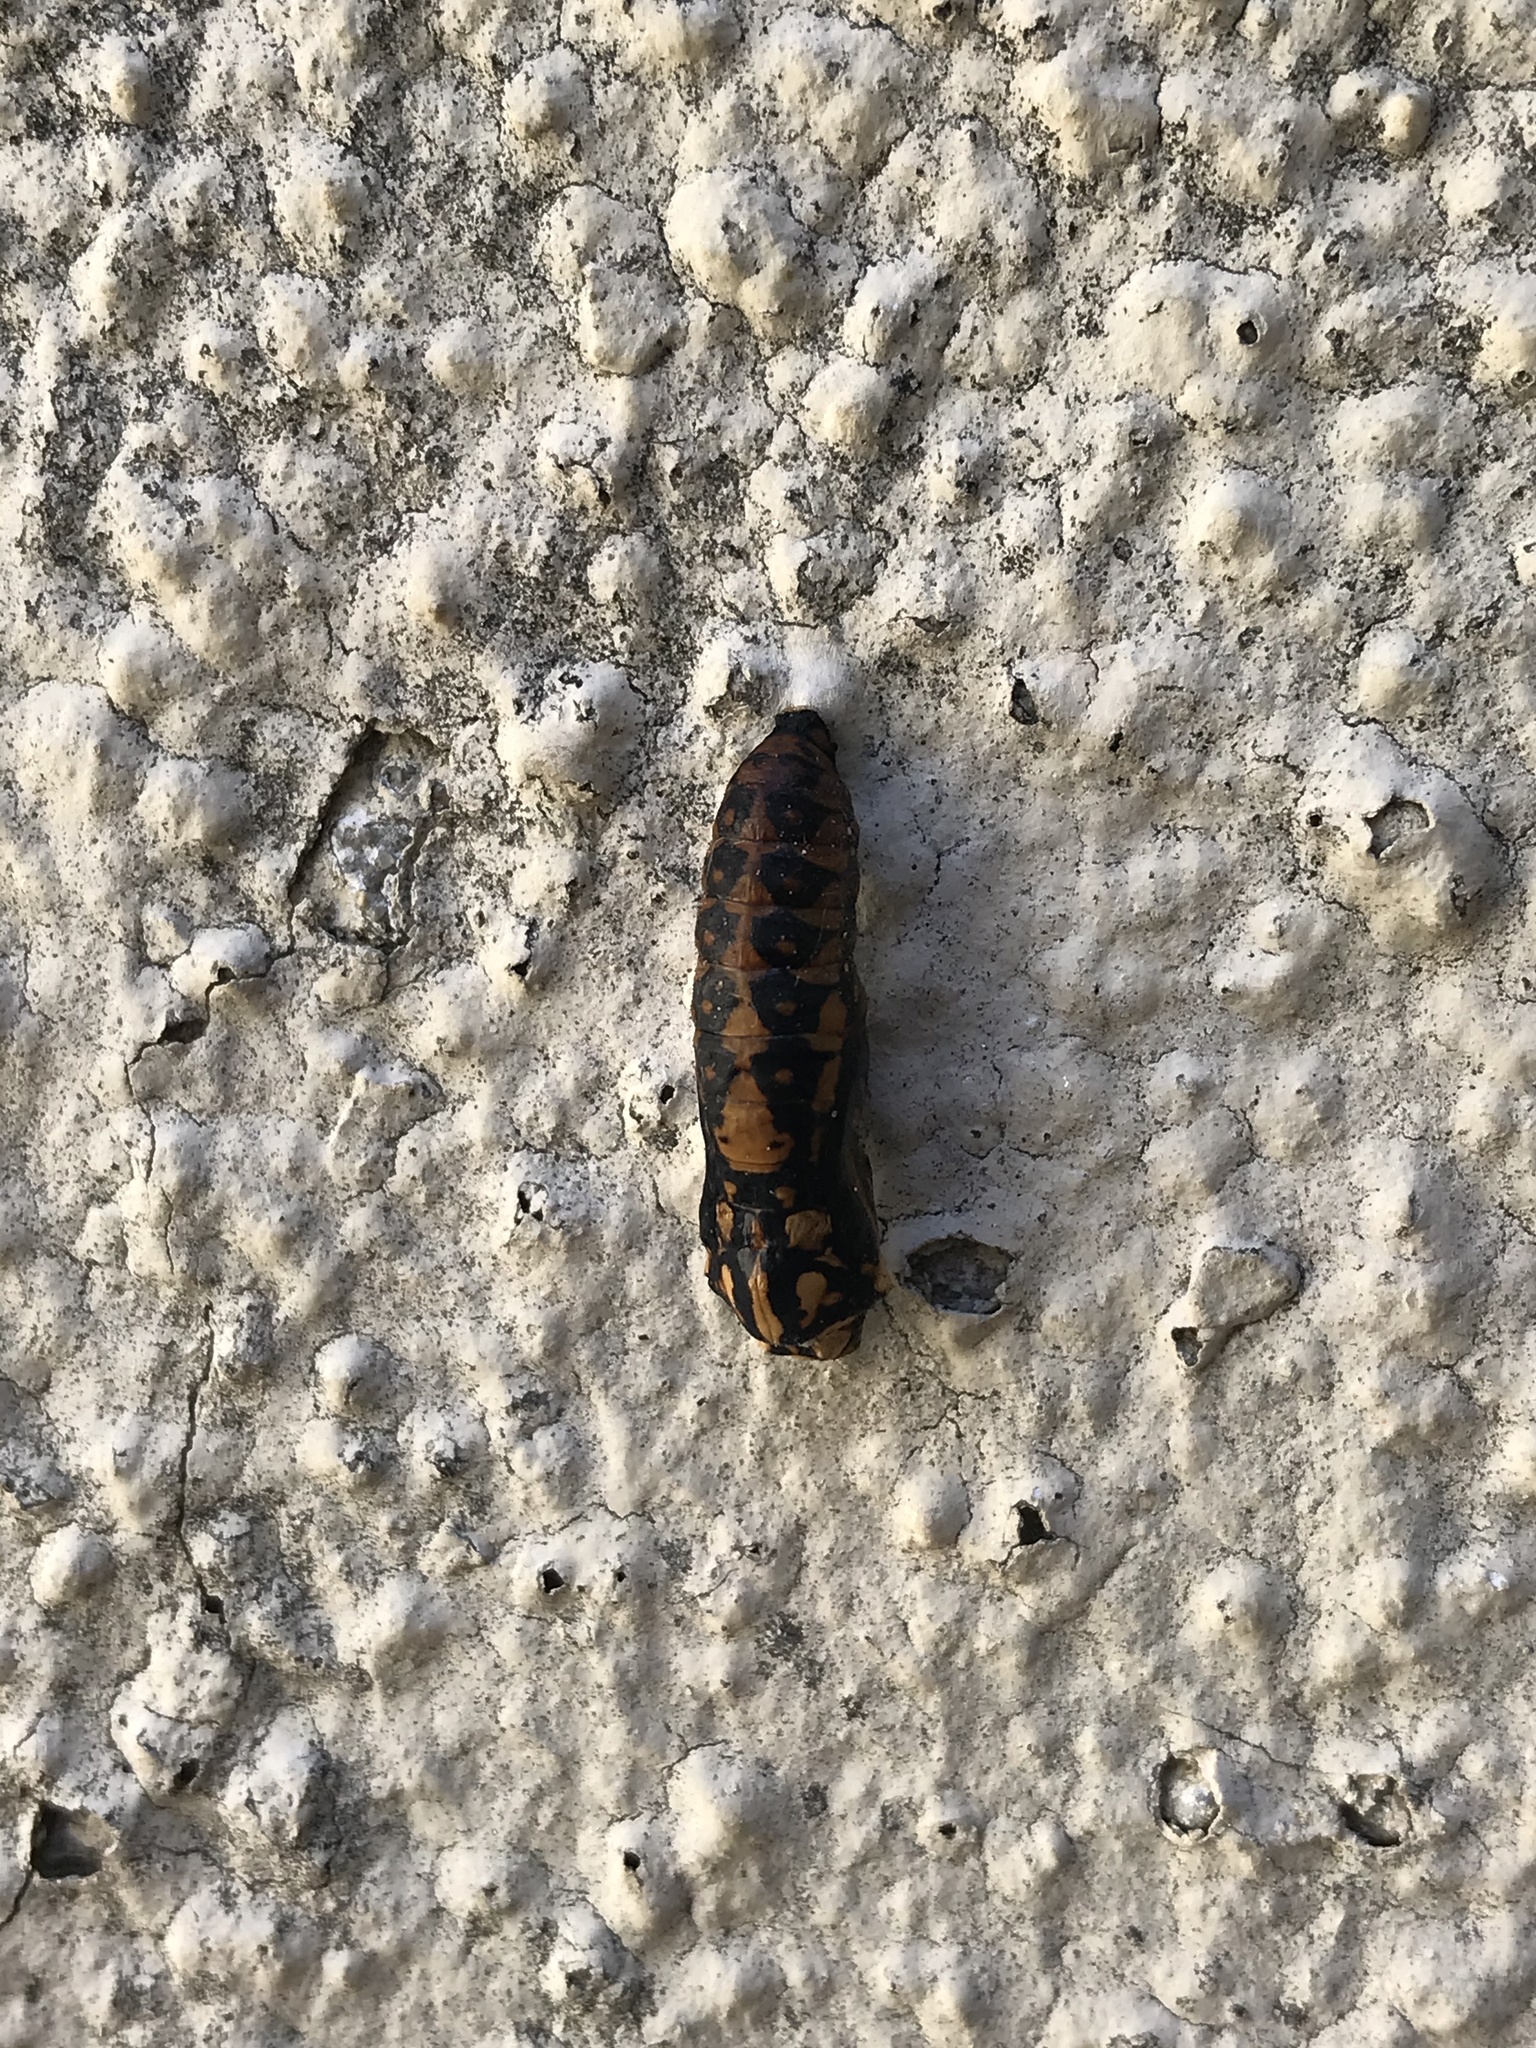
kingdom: Animalia
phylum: Arthropoda
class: Insecta
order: Lepidoptera
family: Nymphalidae
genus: Acraea
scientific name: Acraea horta
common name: Garden acraea
